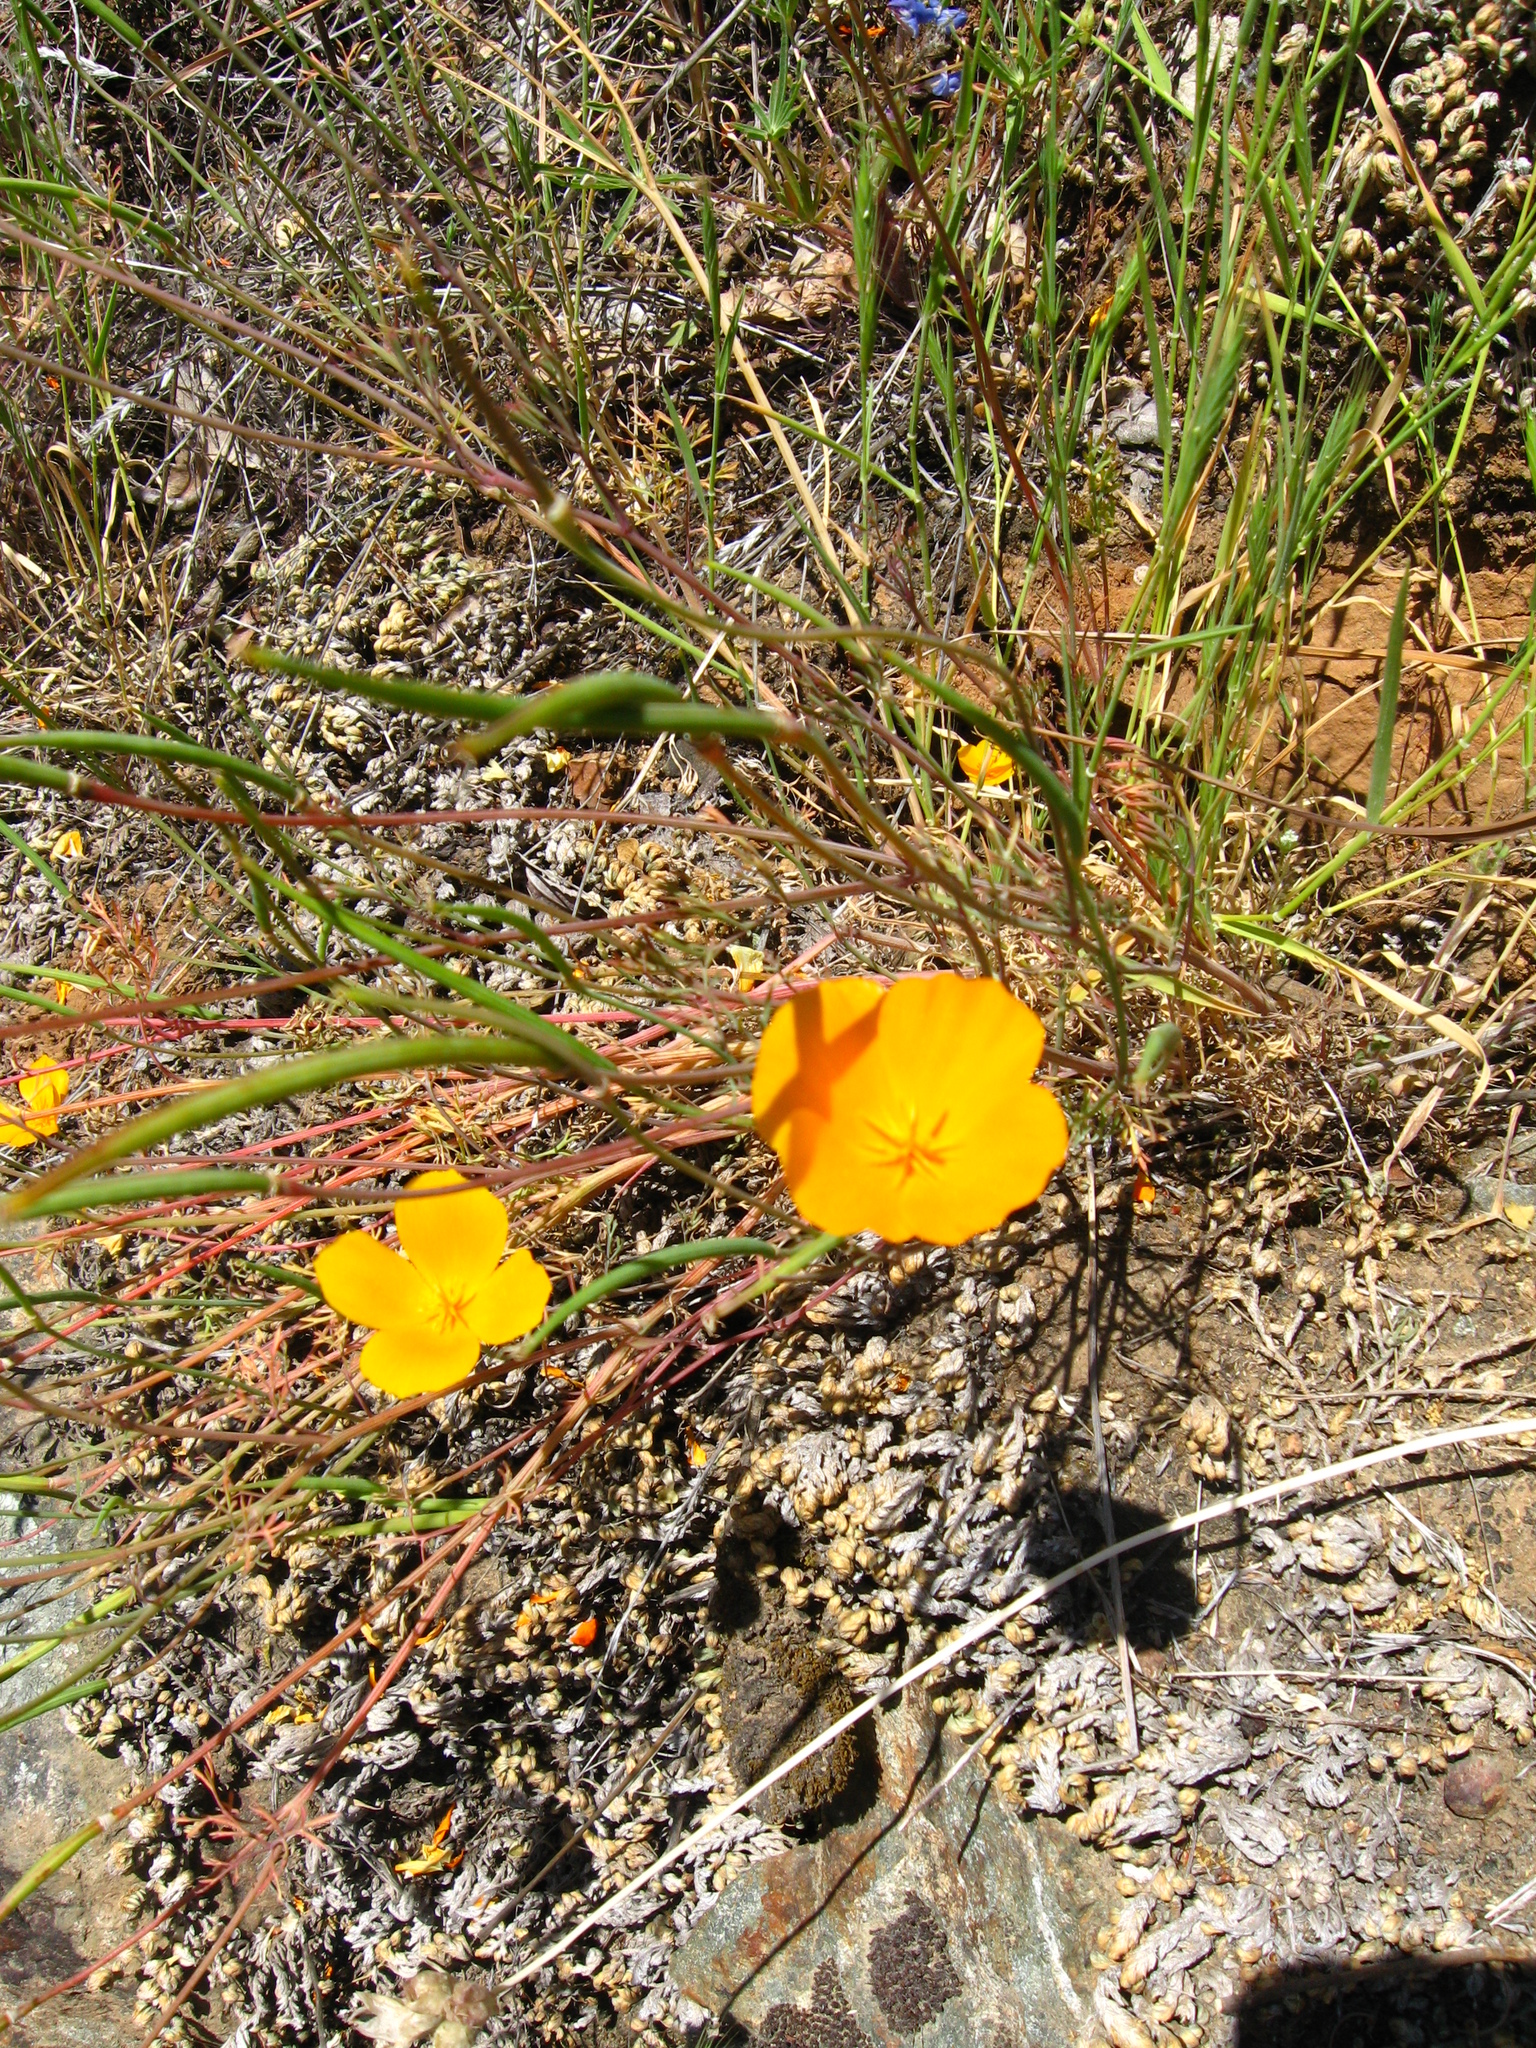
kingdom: Plantae
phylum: Tracheophyta
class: Magnoliopsida
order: Ranunculales
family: Papaveraceae
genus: Eschscholzia
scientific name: Eschscholzia caespitosa
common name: Tufted california-poppy
